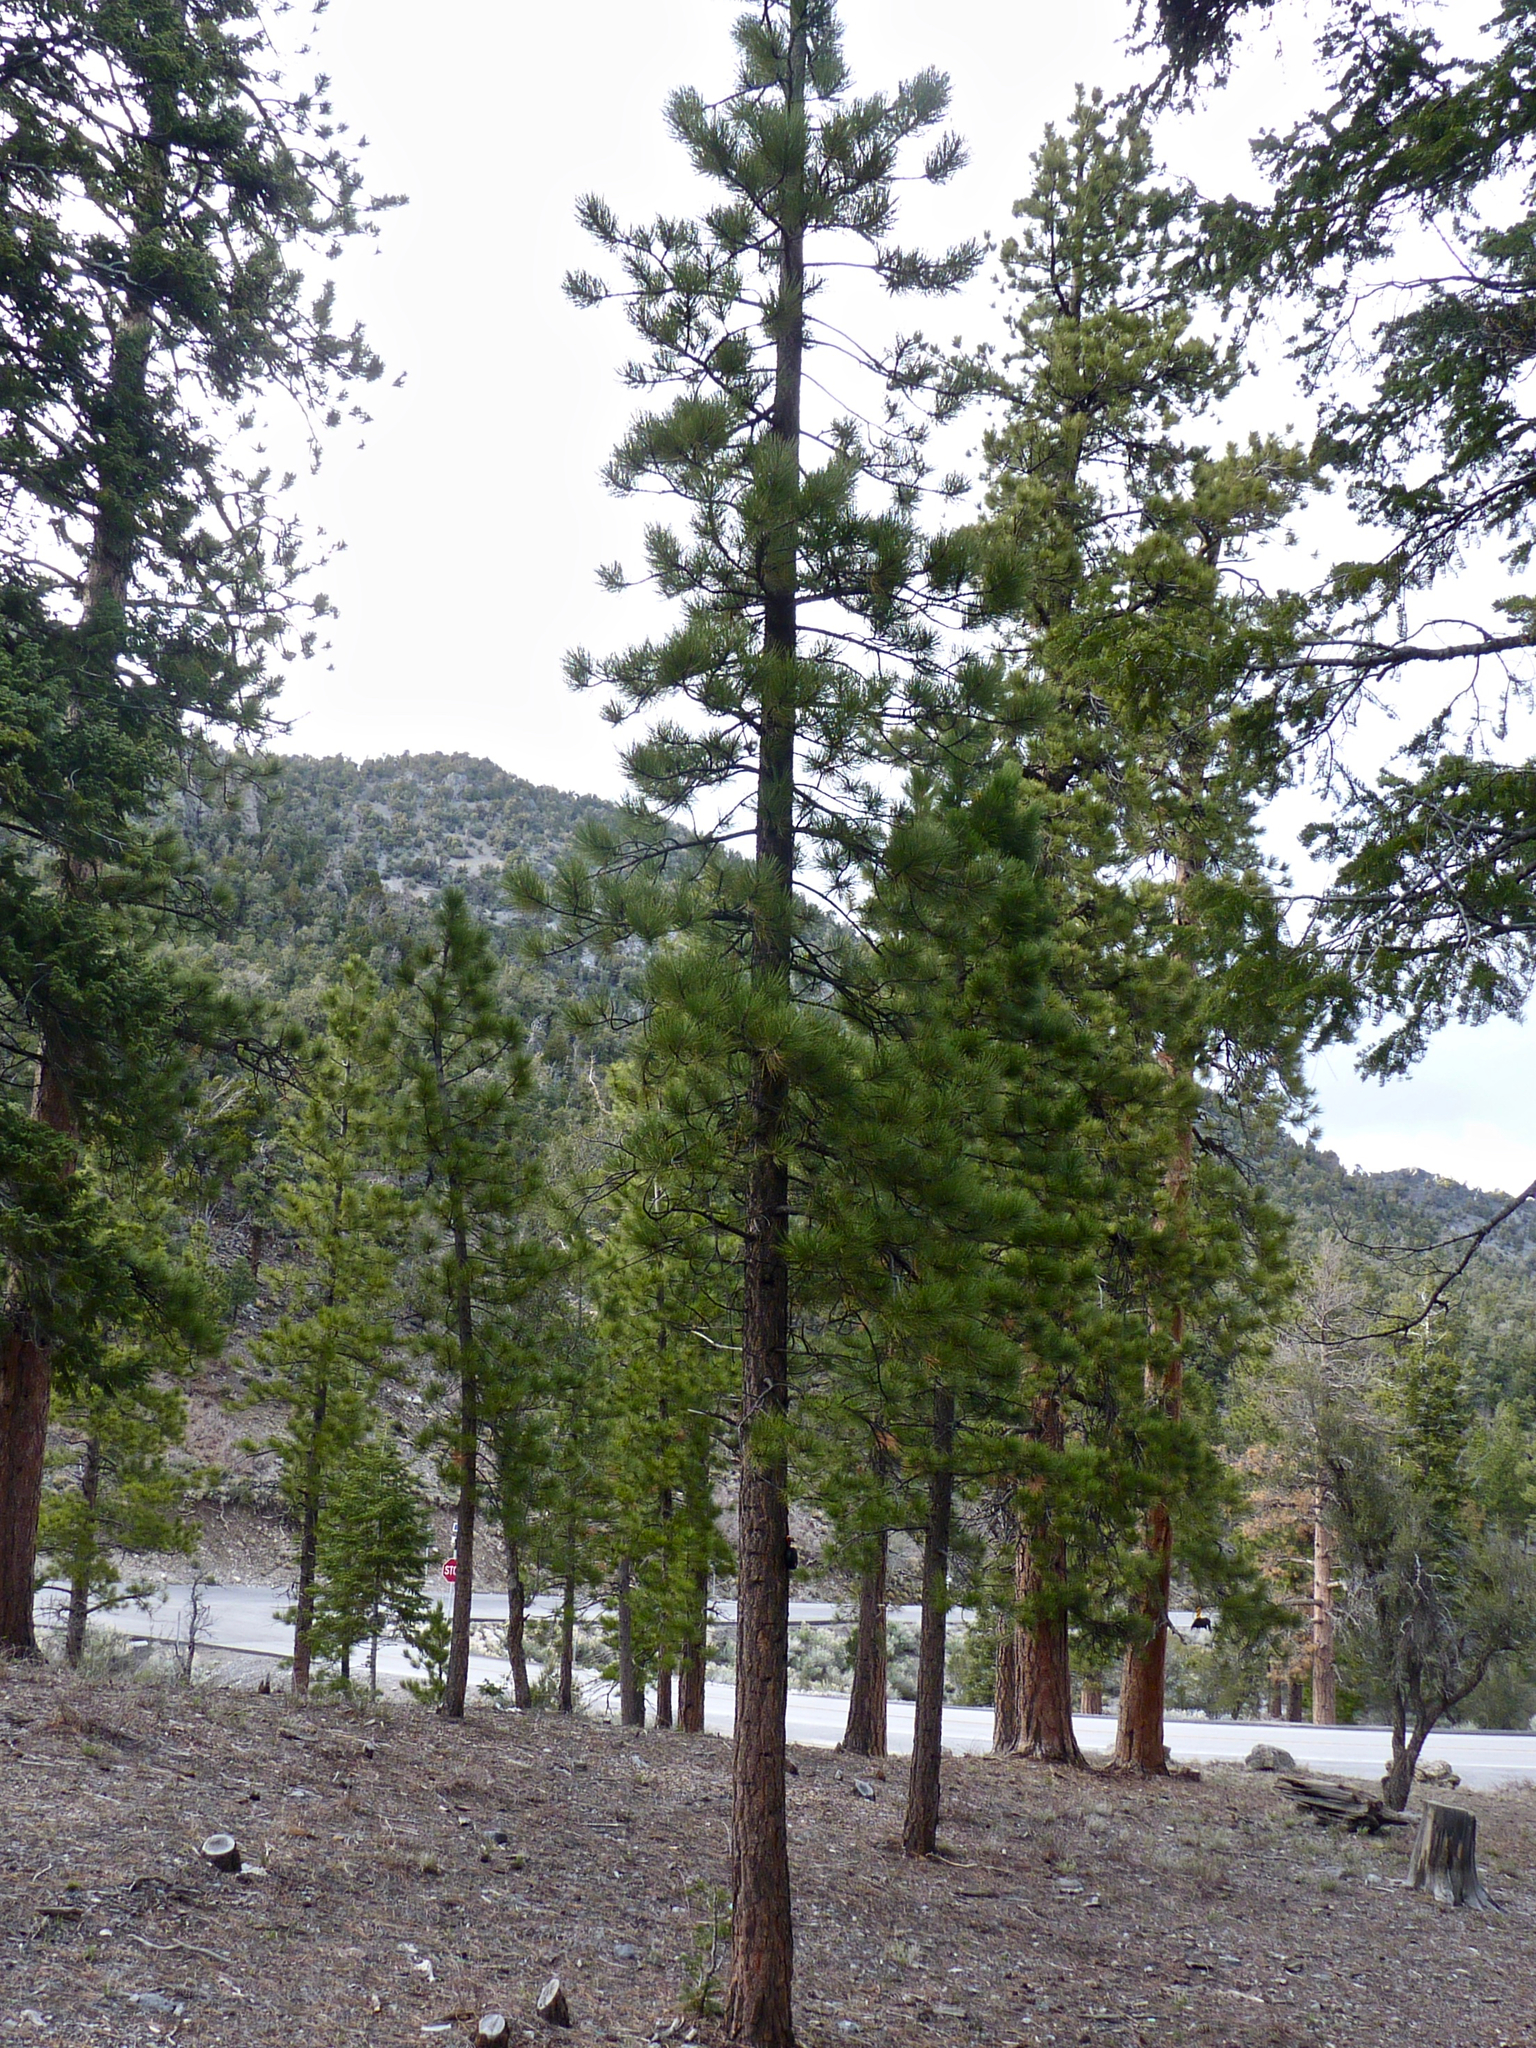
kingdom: Plantae
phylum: Tracheophyta
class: Pinopsida
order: Pinales
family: Pinaceae
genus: Pinus
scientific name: Pinus ponderosa
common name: Western yellow-pine
